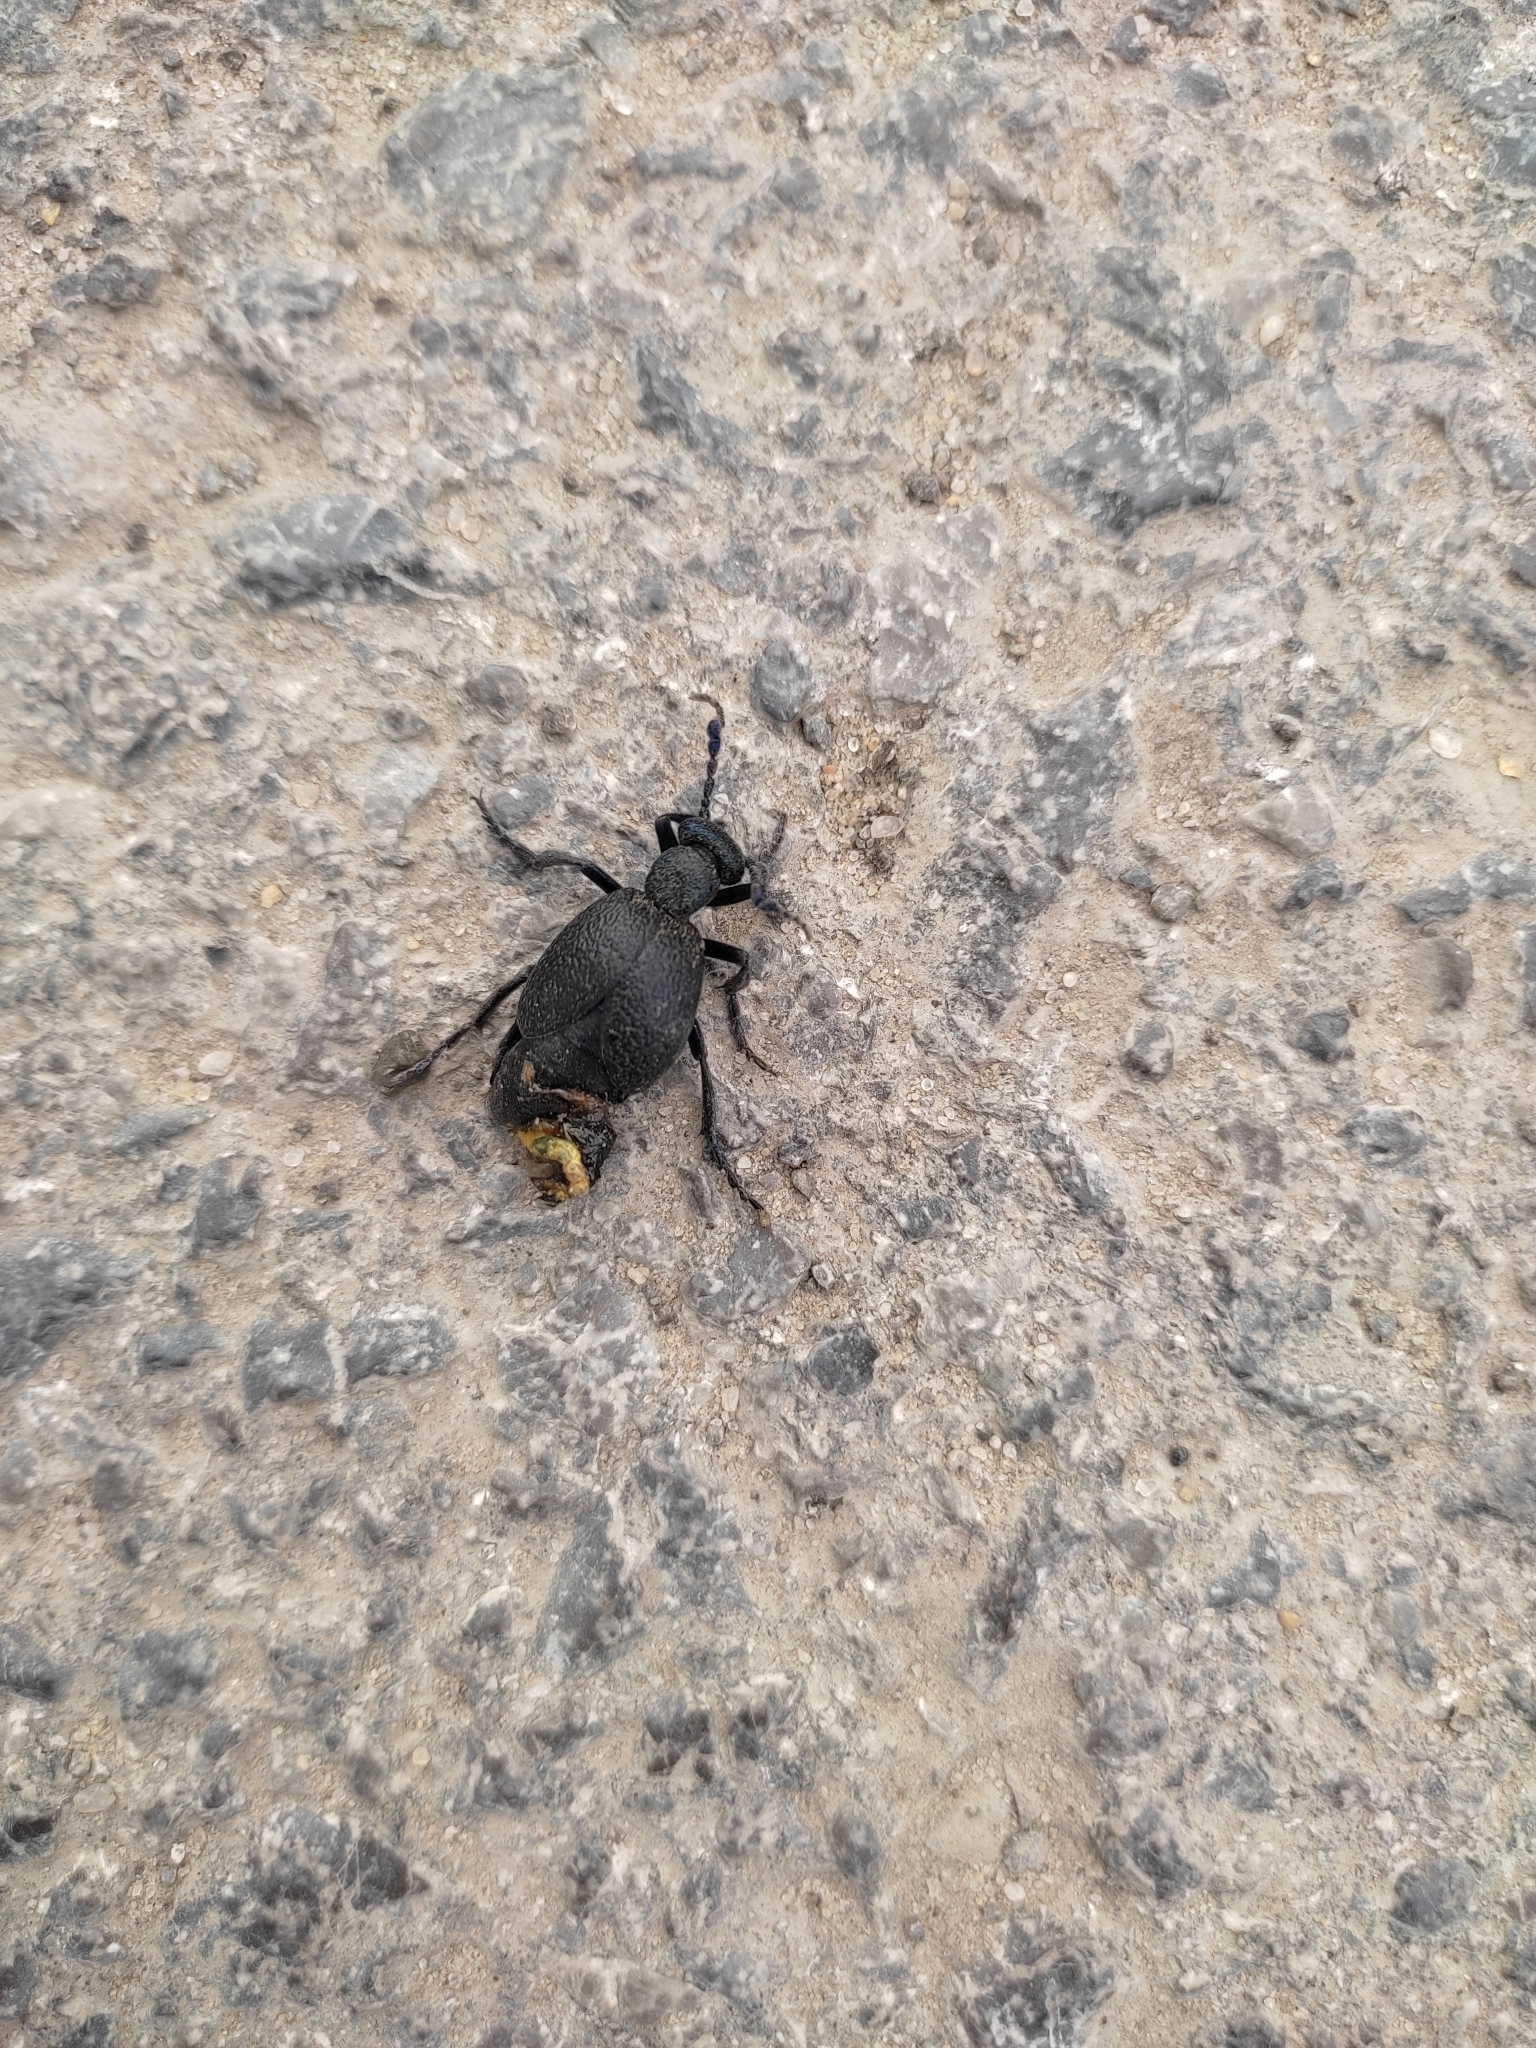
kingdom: Animalia
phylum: Arthropoda
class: Insecta
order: Coleoptera
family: Meloidae
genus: Meloe
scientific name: Meloe proscarabaeus
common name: Black oil-beetle
